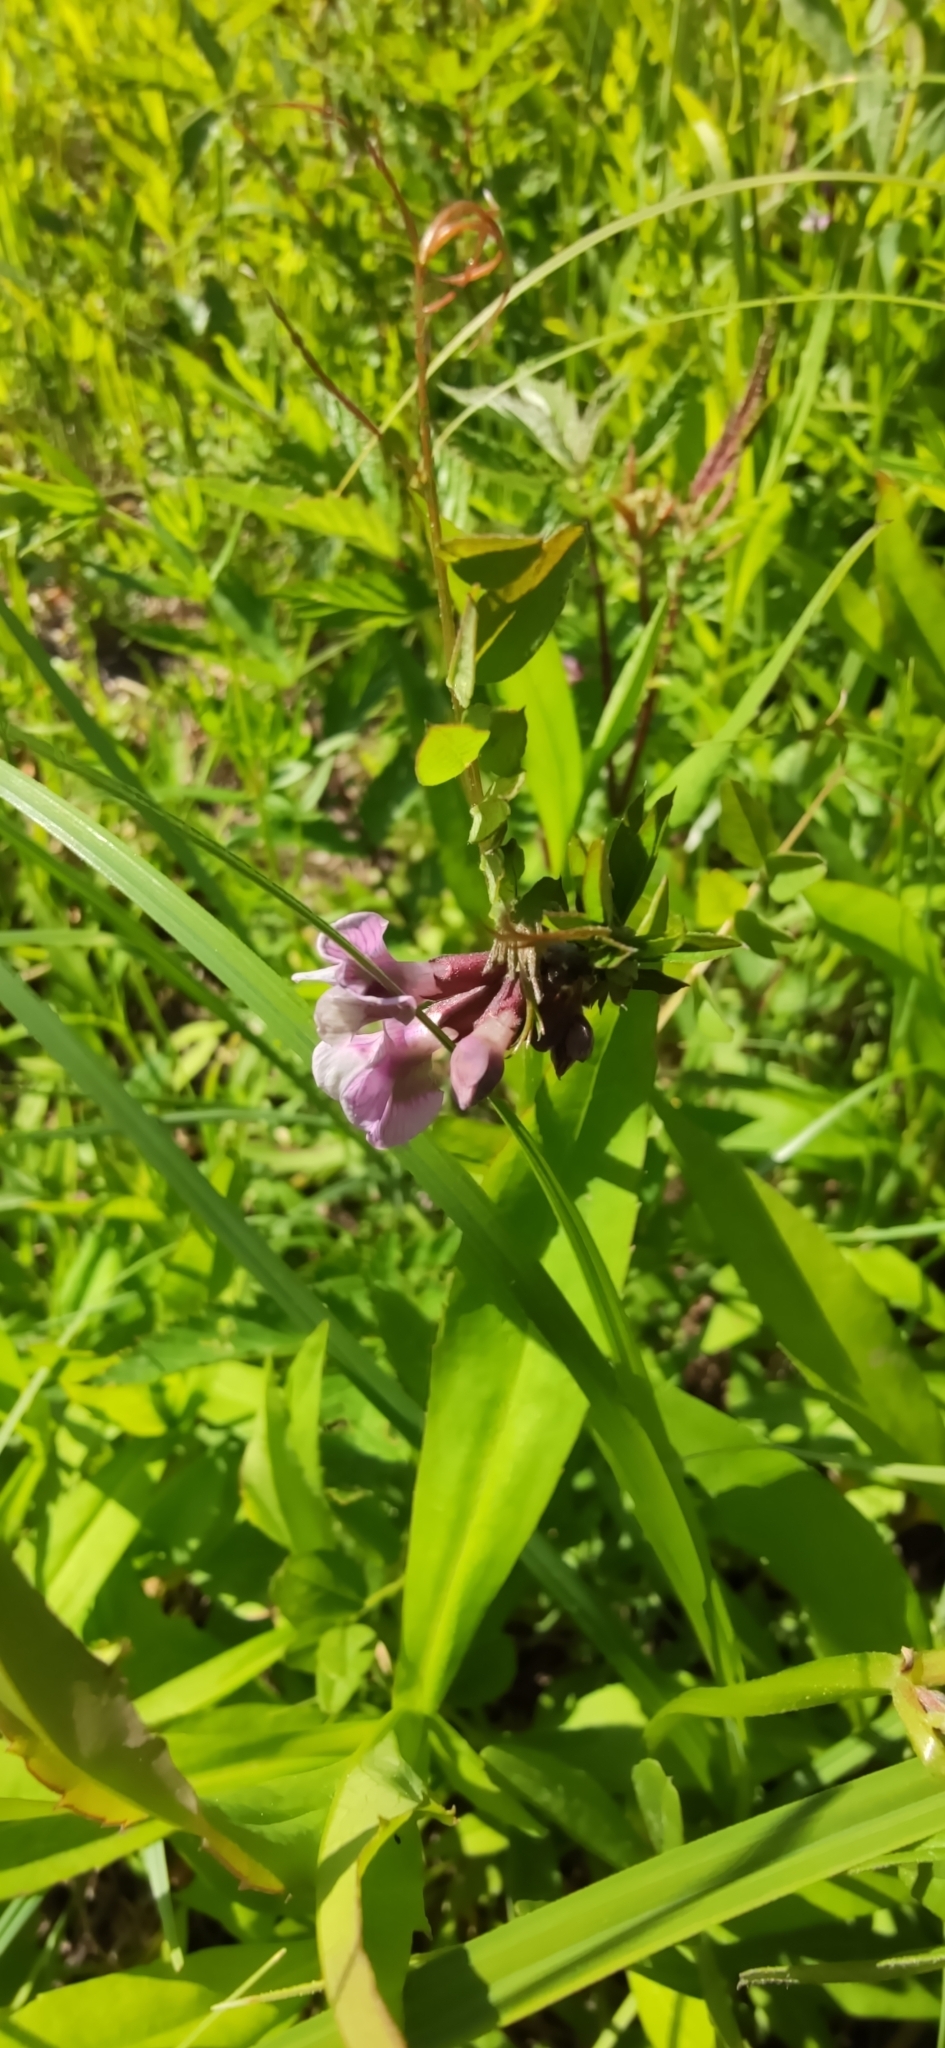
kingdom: Plantae
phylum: Tracheophyta
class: Magnoliopsida
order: Fabales
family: Fabaceae
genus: Vicia
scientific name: Vicia sepium
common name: Bush vetch
